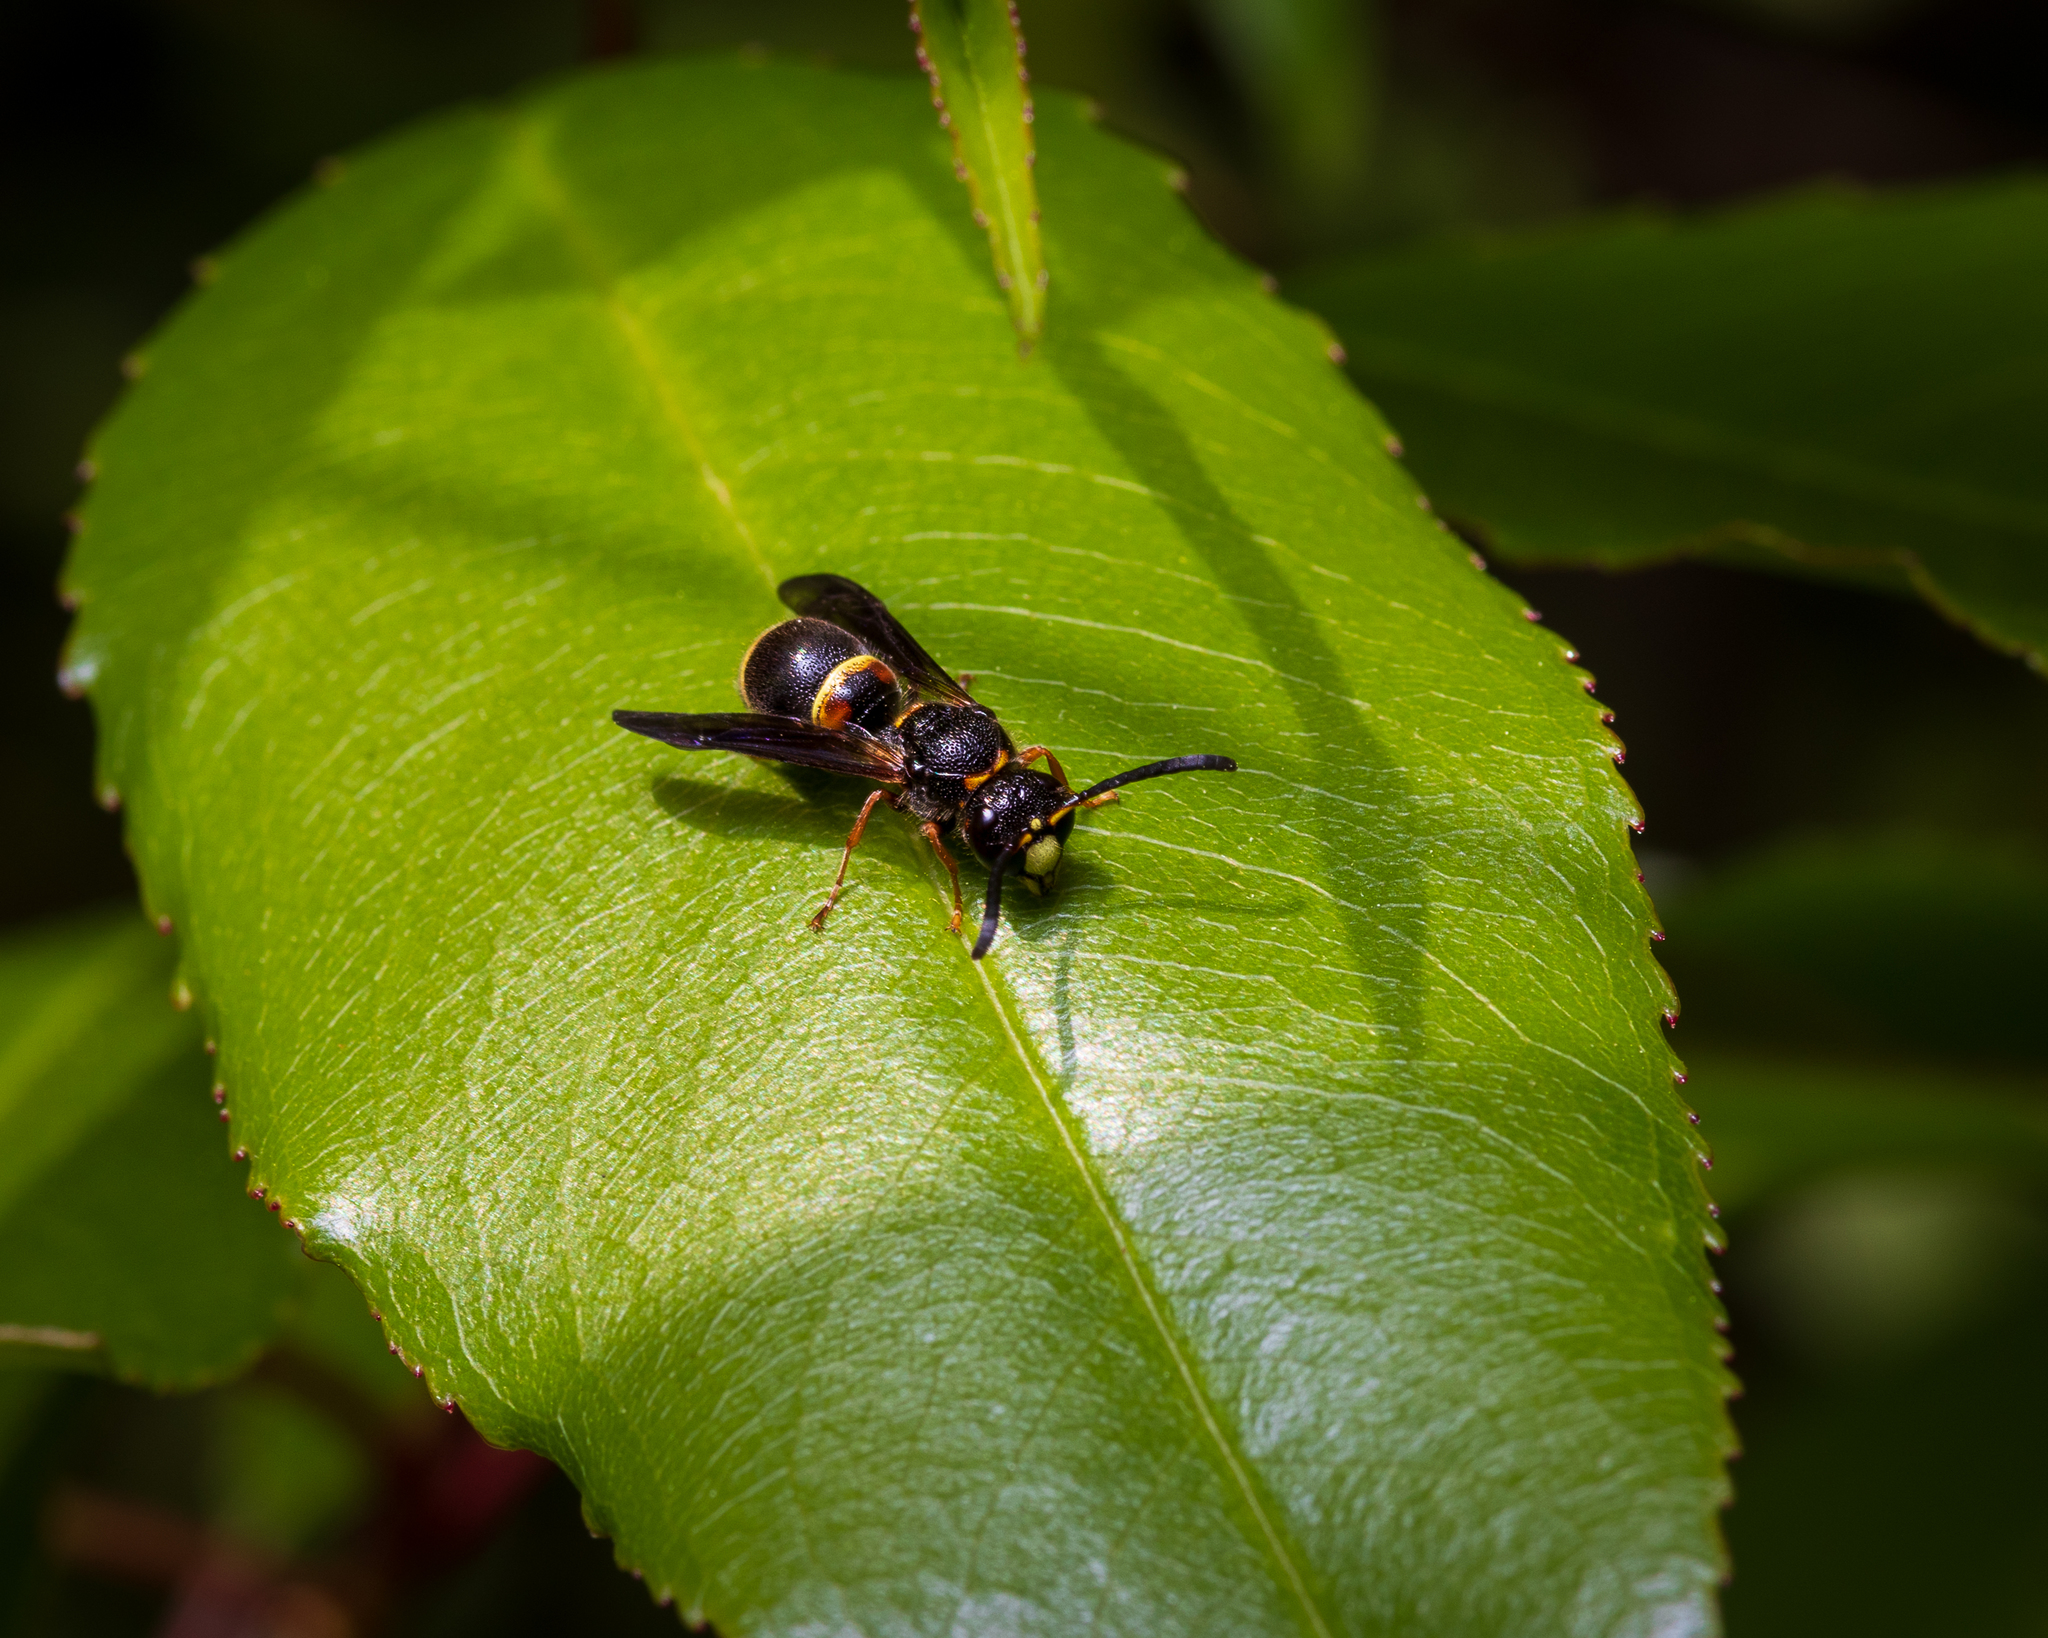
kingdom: Animalia
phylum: Arthropoda
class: Insecta
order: Hymenoptera
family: Vespidae
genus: Ancistrocerus
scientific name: Ancistrocerus unifasciatus
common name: One-banded mason wasp
